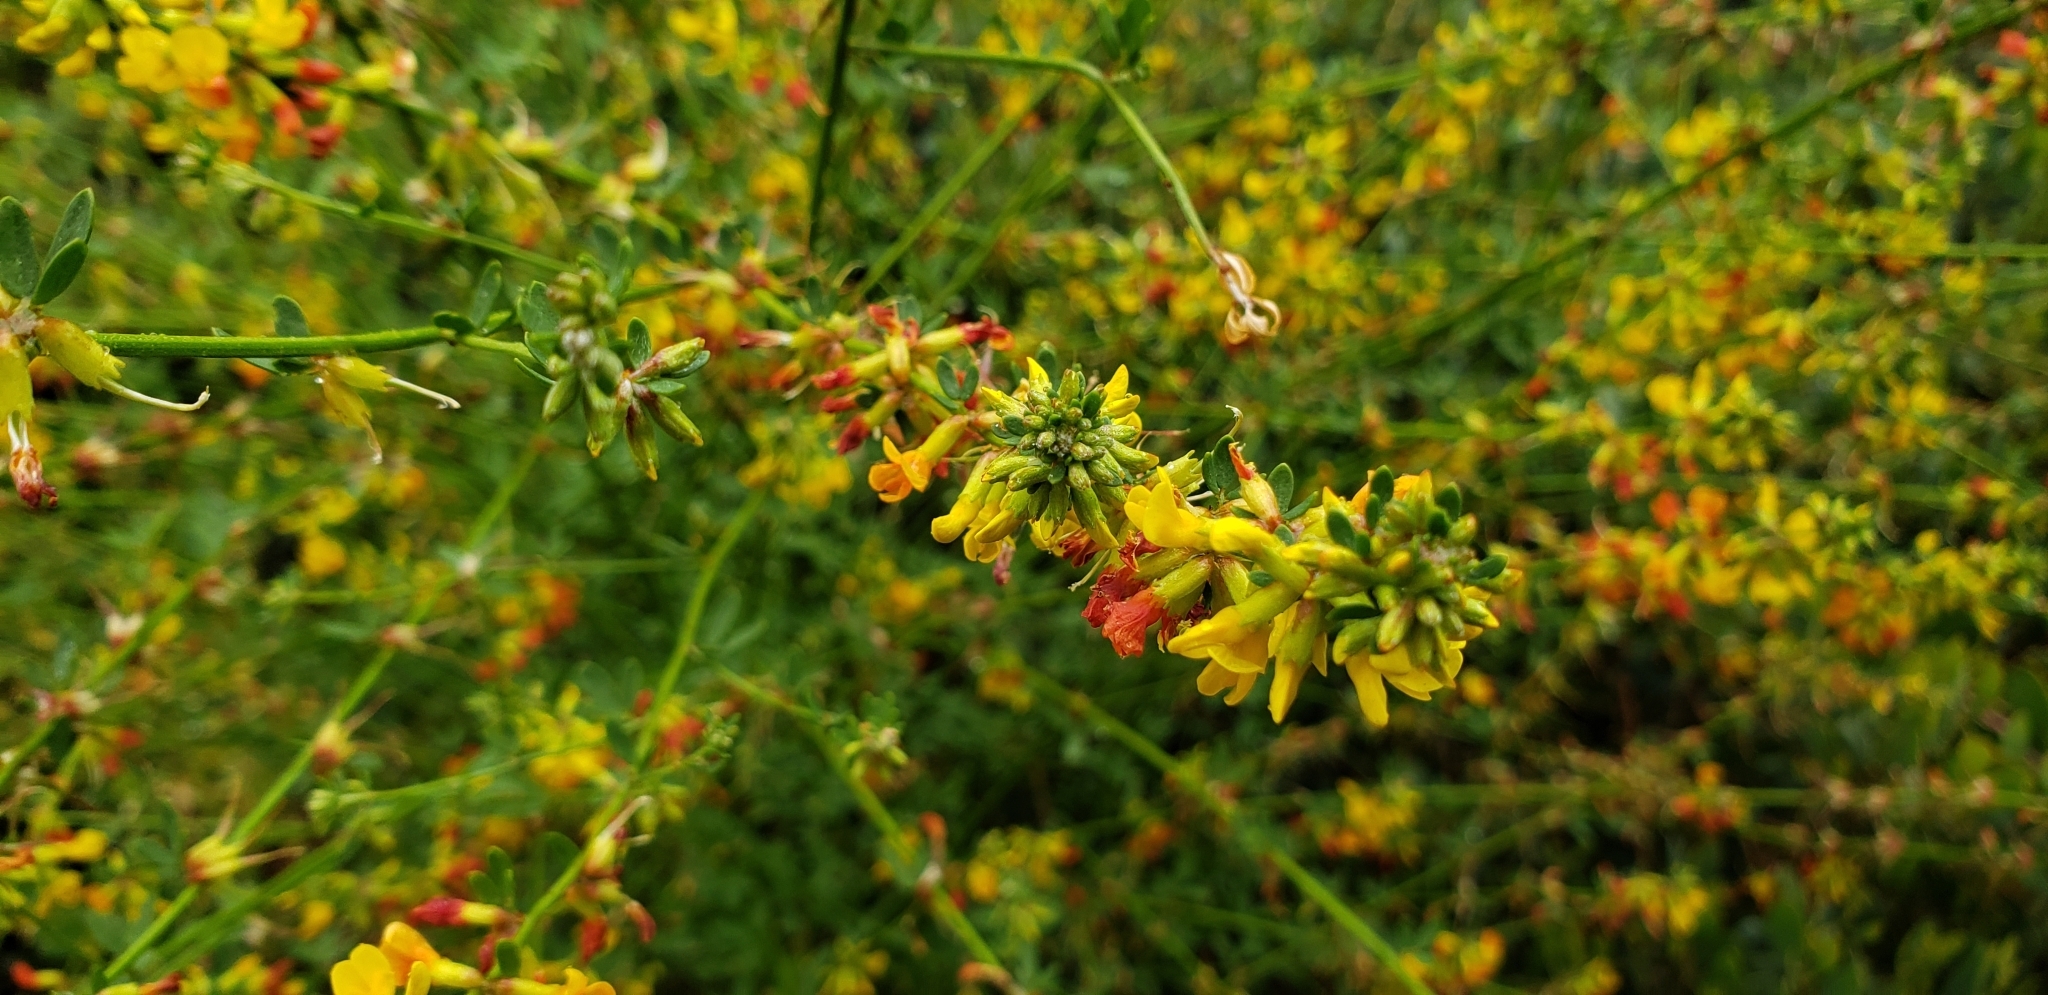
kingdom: Plantae
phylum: Tracheophyta
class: Magnoliopsida
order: Fabales
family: Fabaceae
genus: Acmispon
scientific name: Acmispon glaber
